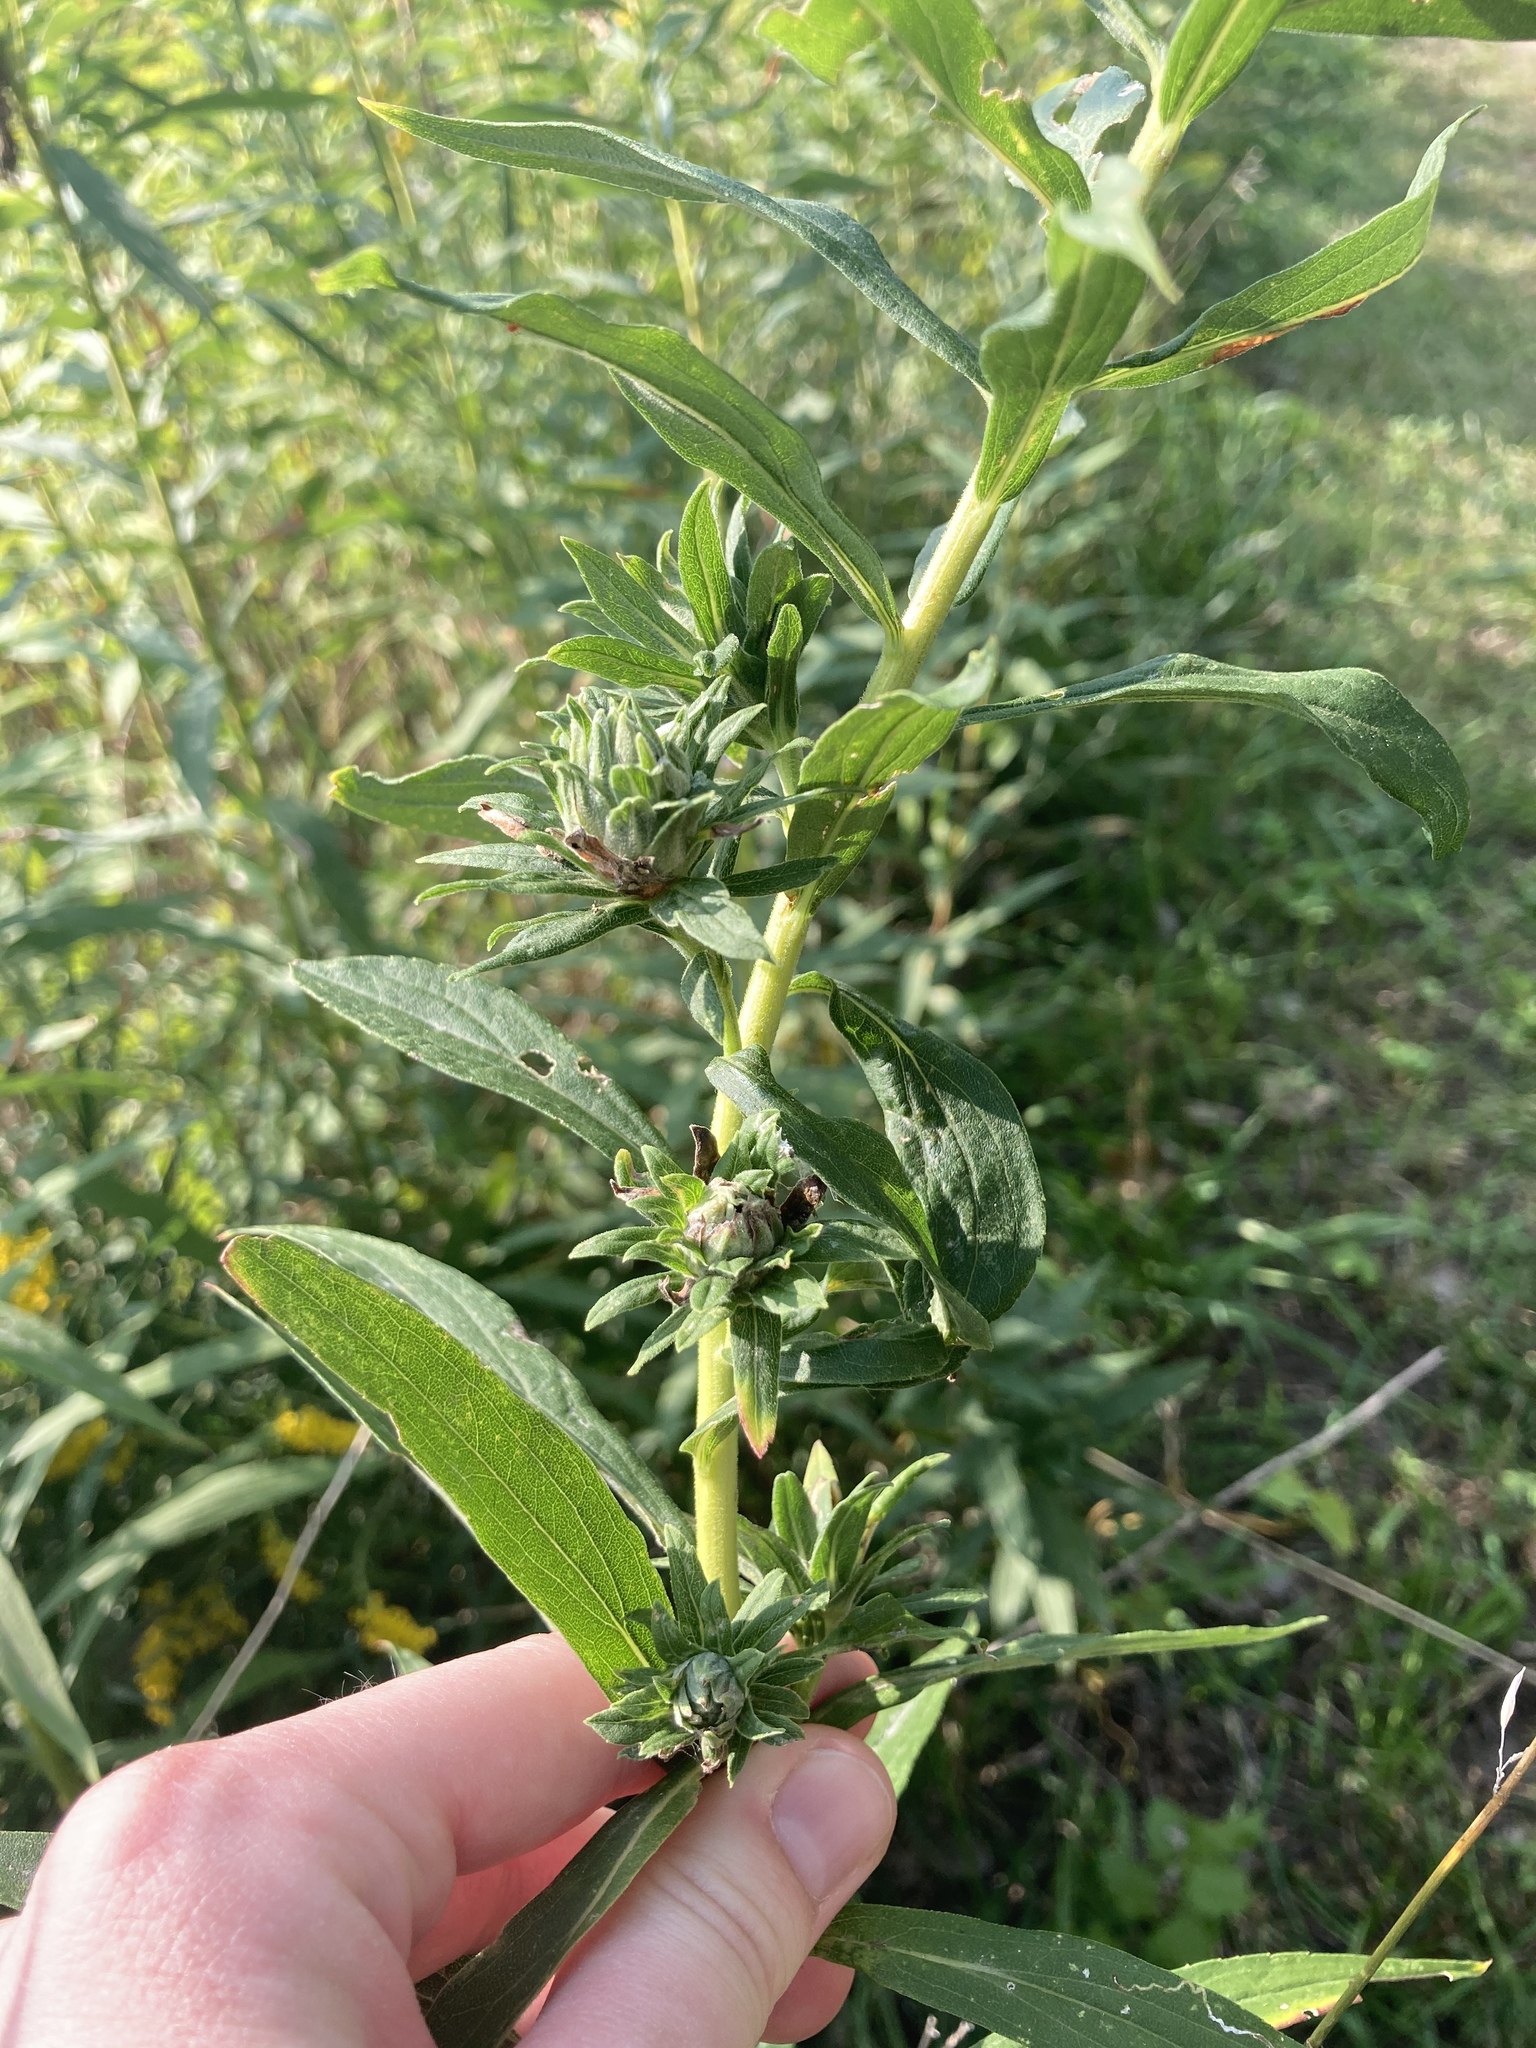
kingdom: Animalia
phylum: Arthropoda
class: Insecta
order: Diptera
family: Tephritidae
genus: Procecidochares
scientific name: Procecidochares atra
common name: Goldenrod brussels sprout gall fly
